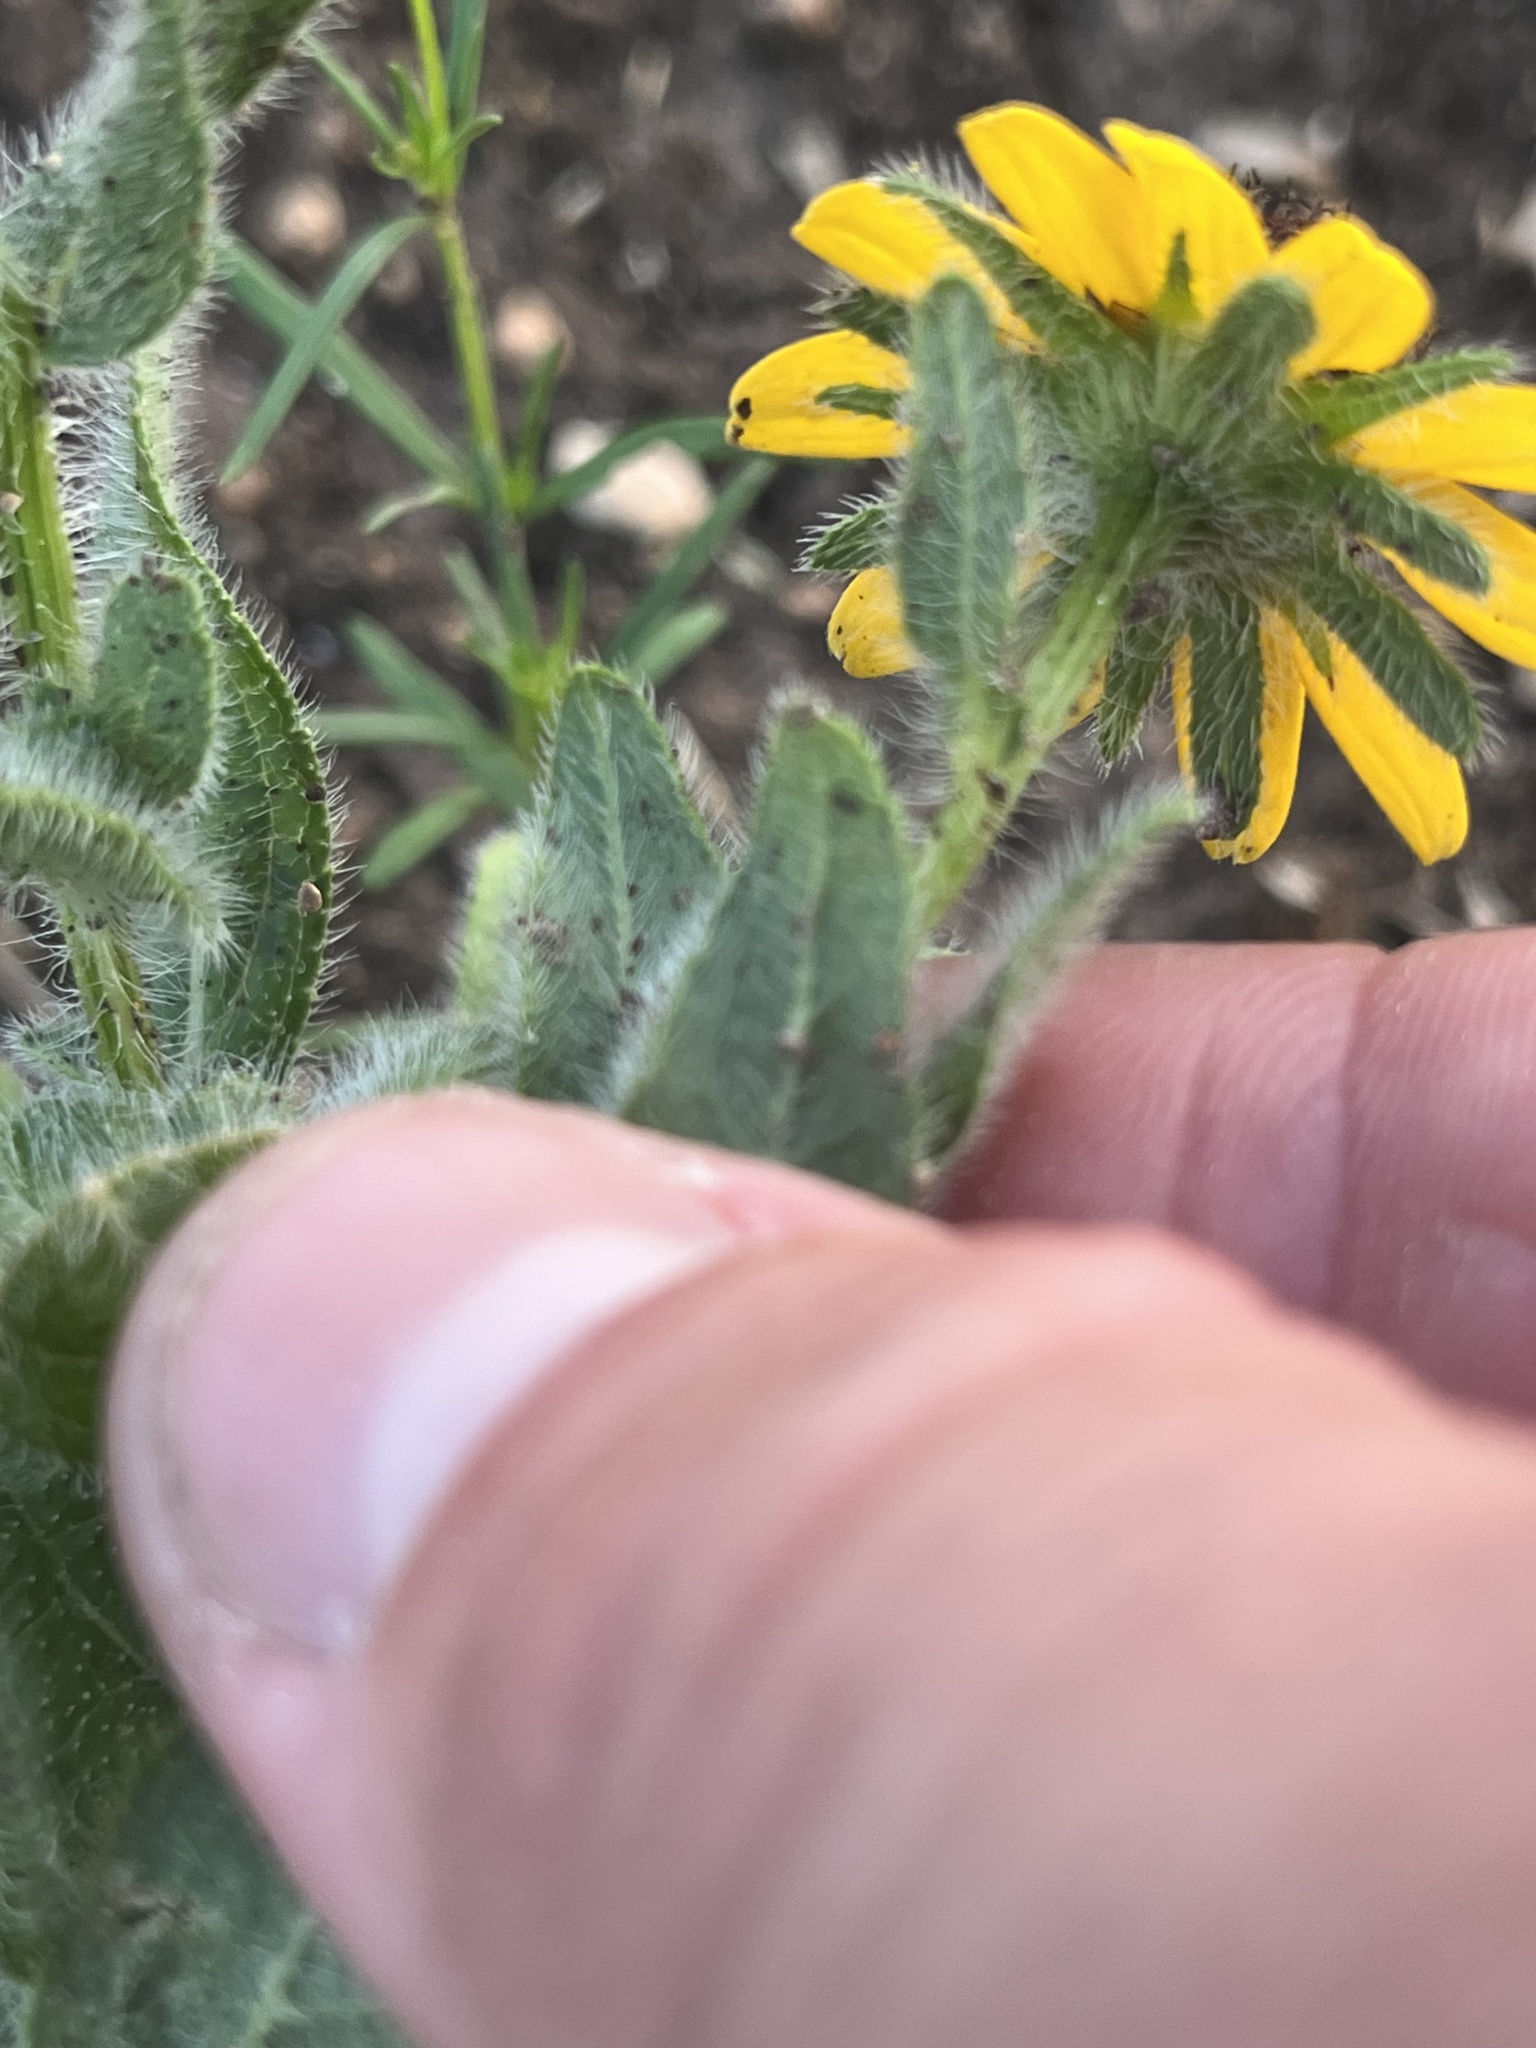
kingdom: Plantae
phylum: Tracheophyta
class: Magnoliopsida
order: Asterales
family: Asteraceae
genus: Rudbeckia
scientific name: Rudbeckia hirta
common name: Black-eyed-susan
